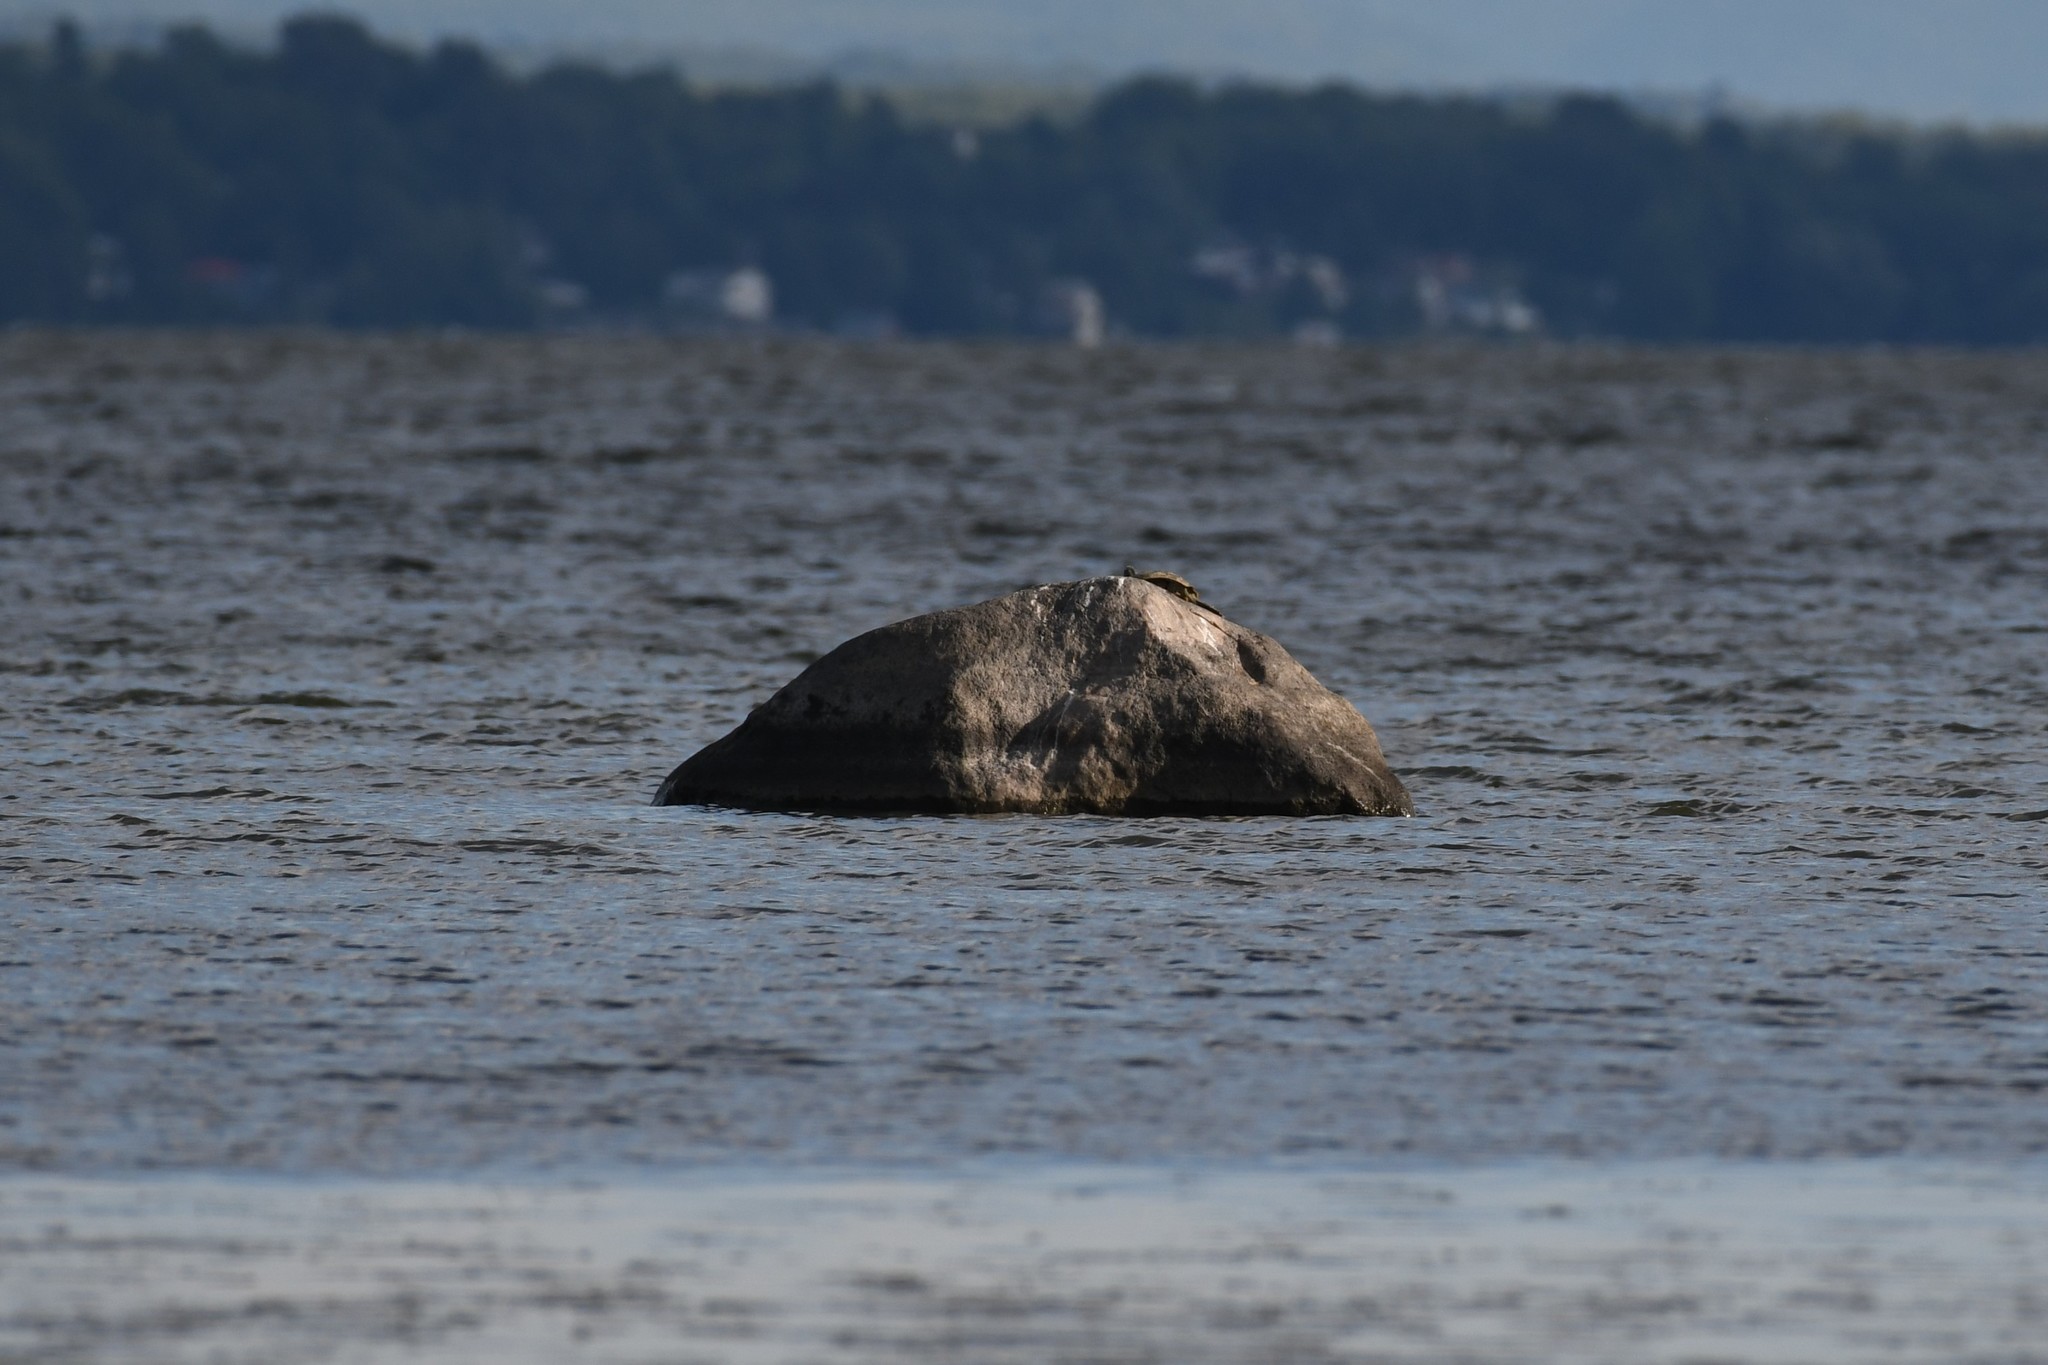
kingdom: Animalia
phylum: Chordata
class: Testudines
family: Emydidae
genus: Graptemys
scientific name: Graptemys geographica
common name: Common map turtle
